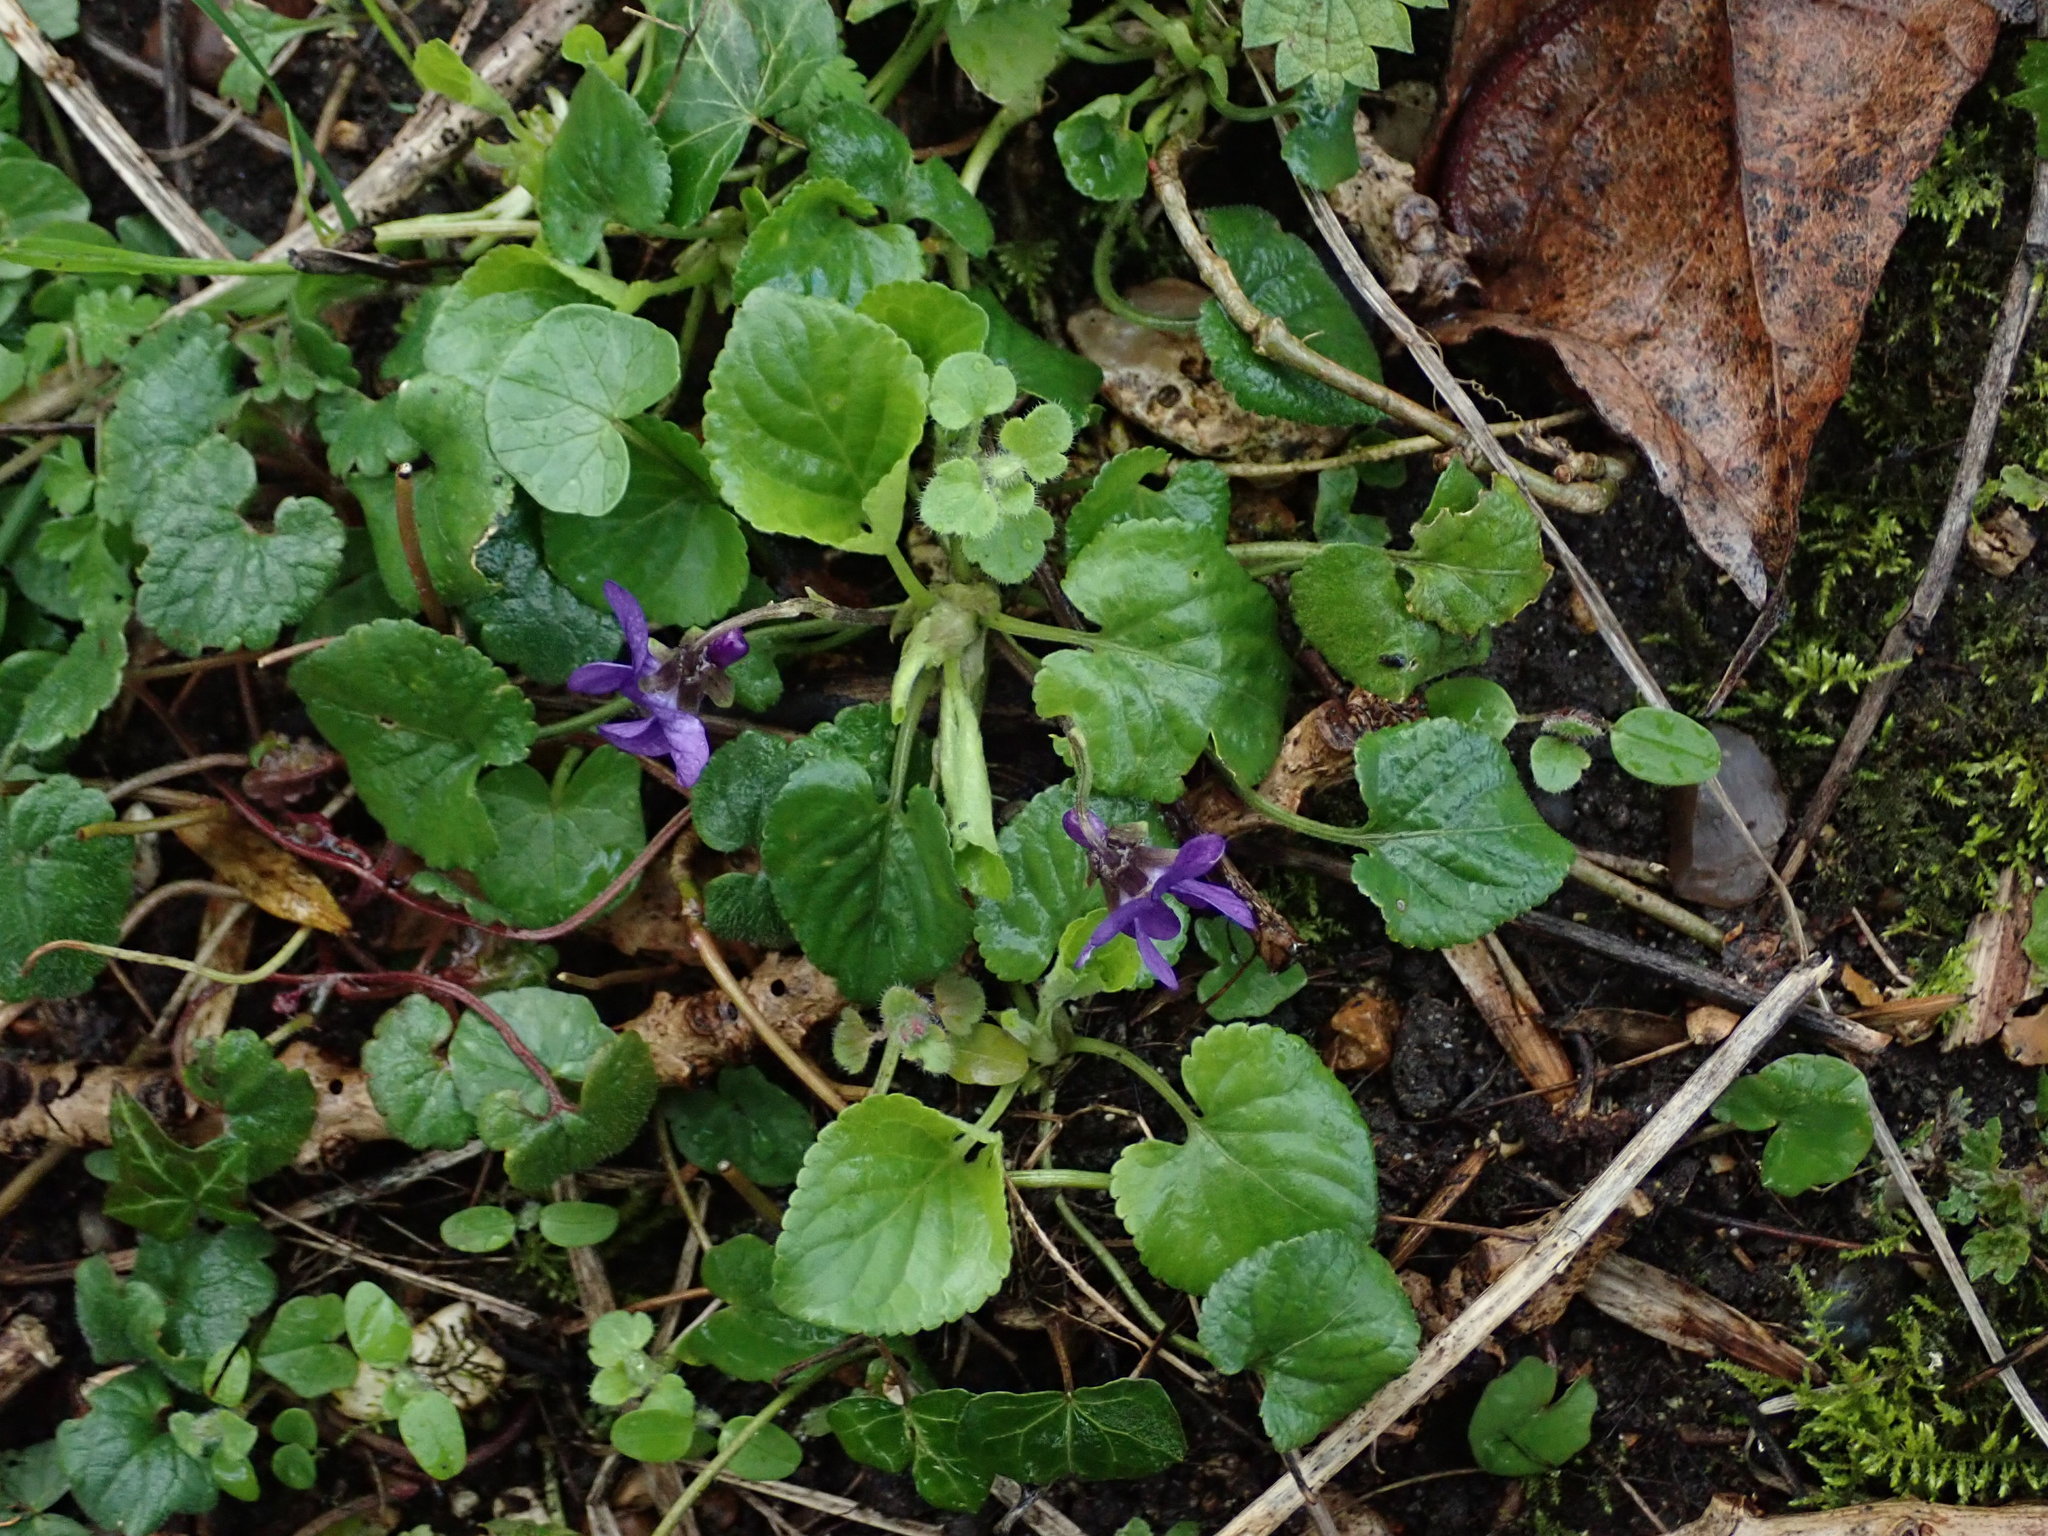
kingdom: Plantae
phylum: Tracheophyta
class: Magnoliopsida
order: Malpighiales
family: Violaceae
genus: Viola
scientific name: Viola odorata
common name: Sweet violet
